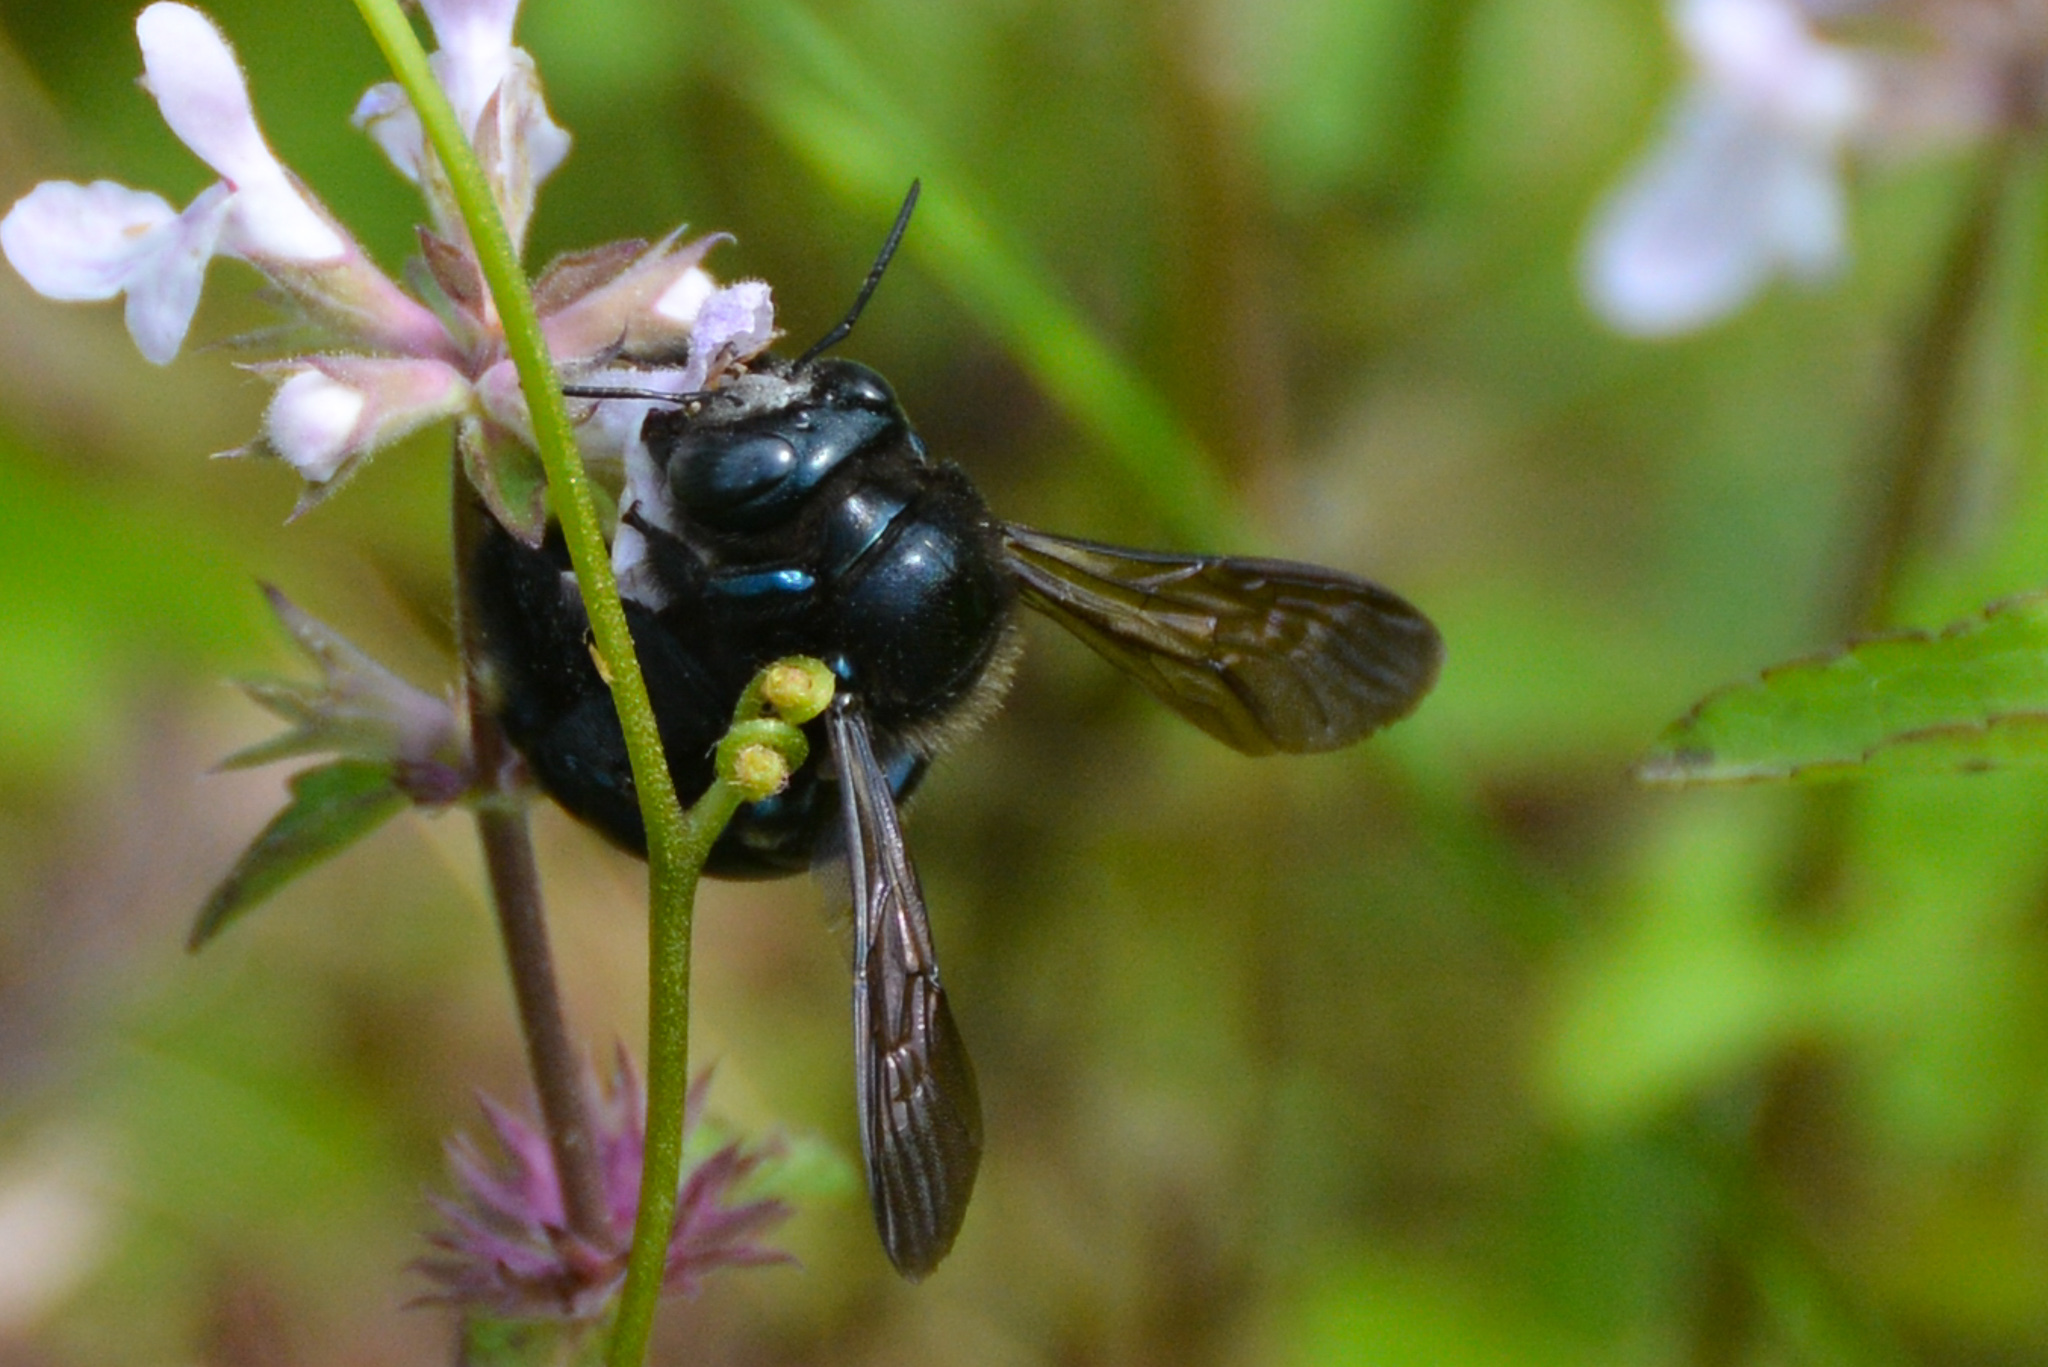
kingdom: Animalia
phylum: Arthropoda
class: Insecta
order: Hymenoptera
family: Apidae
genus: Xylocopa
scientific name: Xylocopa micans
